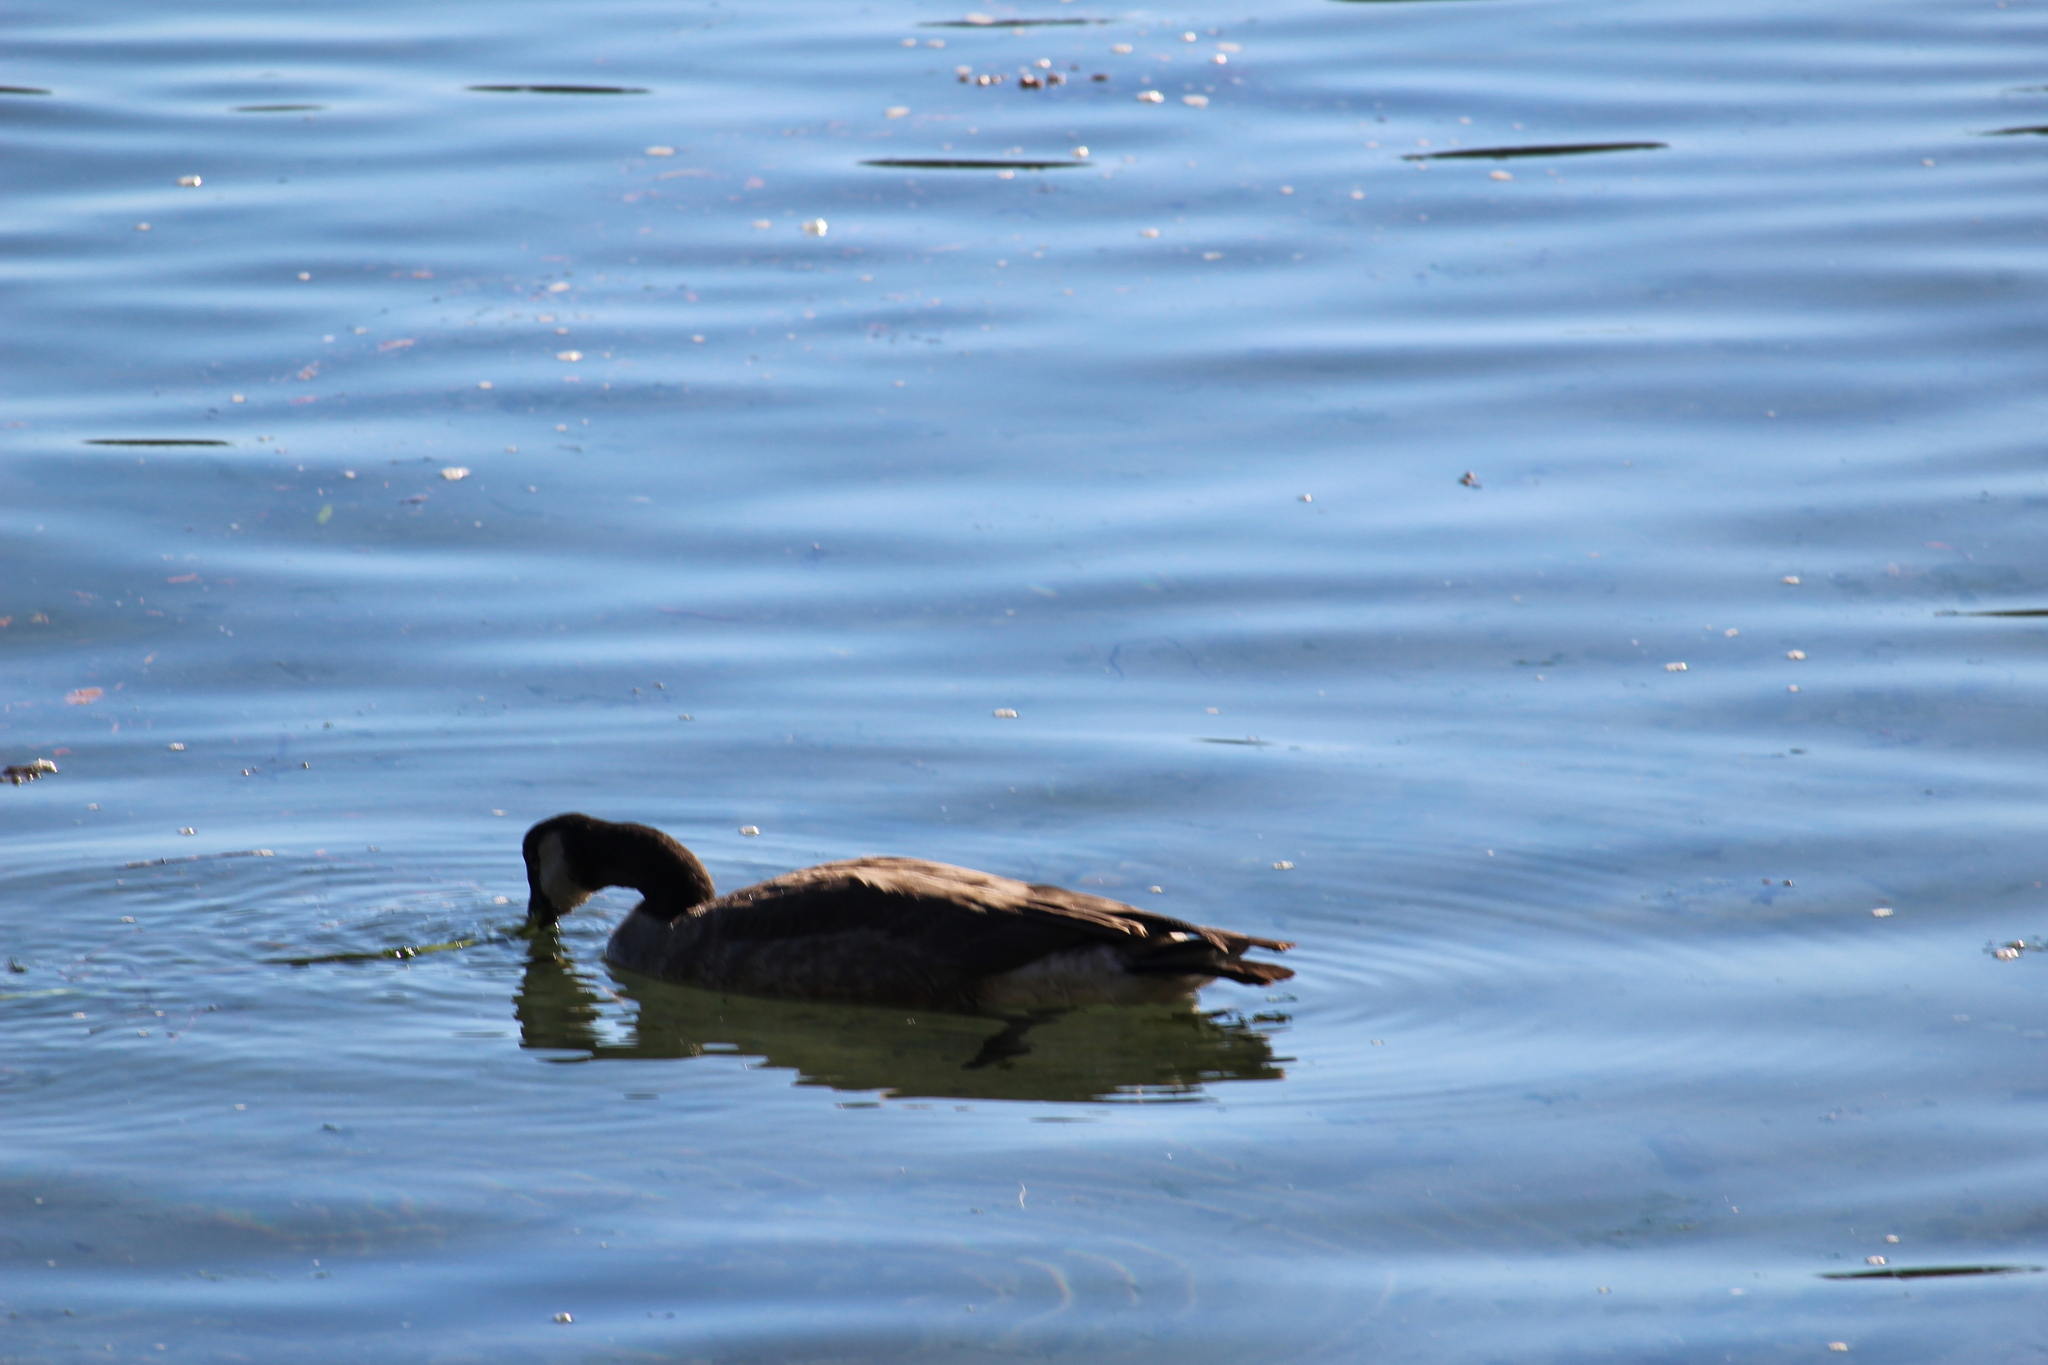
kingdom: Animalia
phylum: Chordata
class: Aves
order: Anseriformes
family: Anatidae
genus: Branta
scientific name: Branta canadensis
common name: Canada goose
